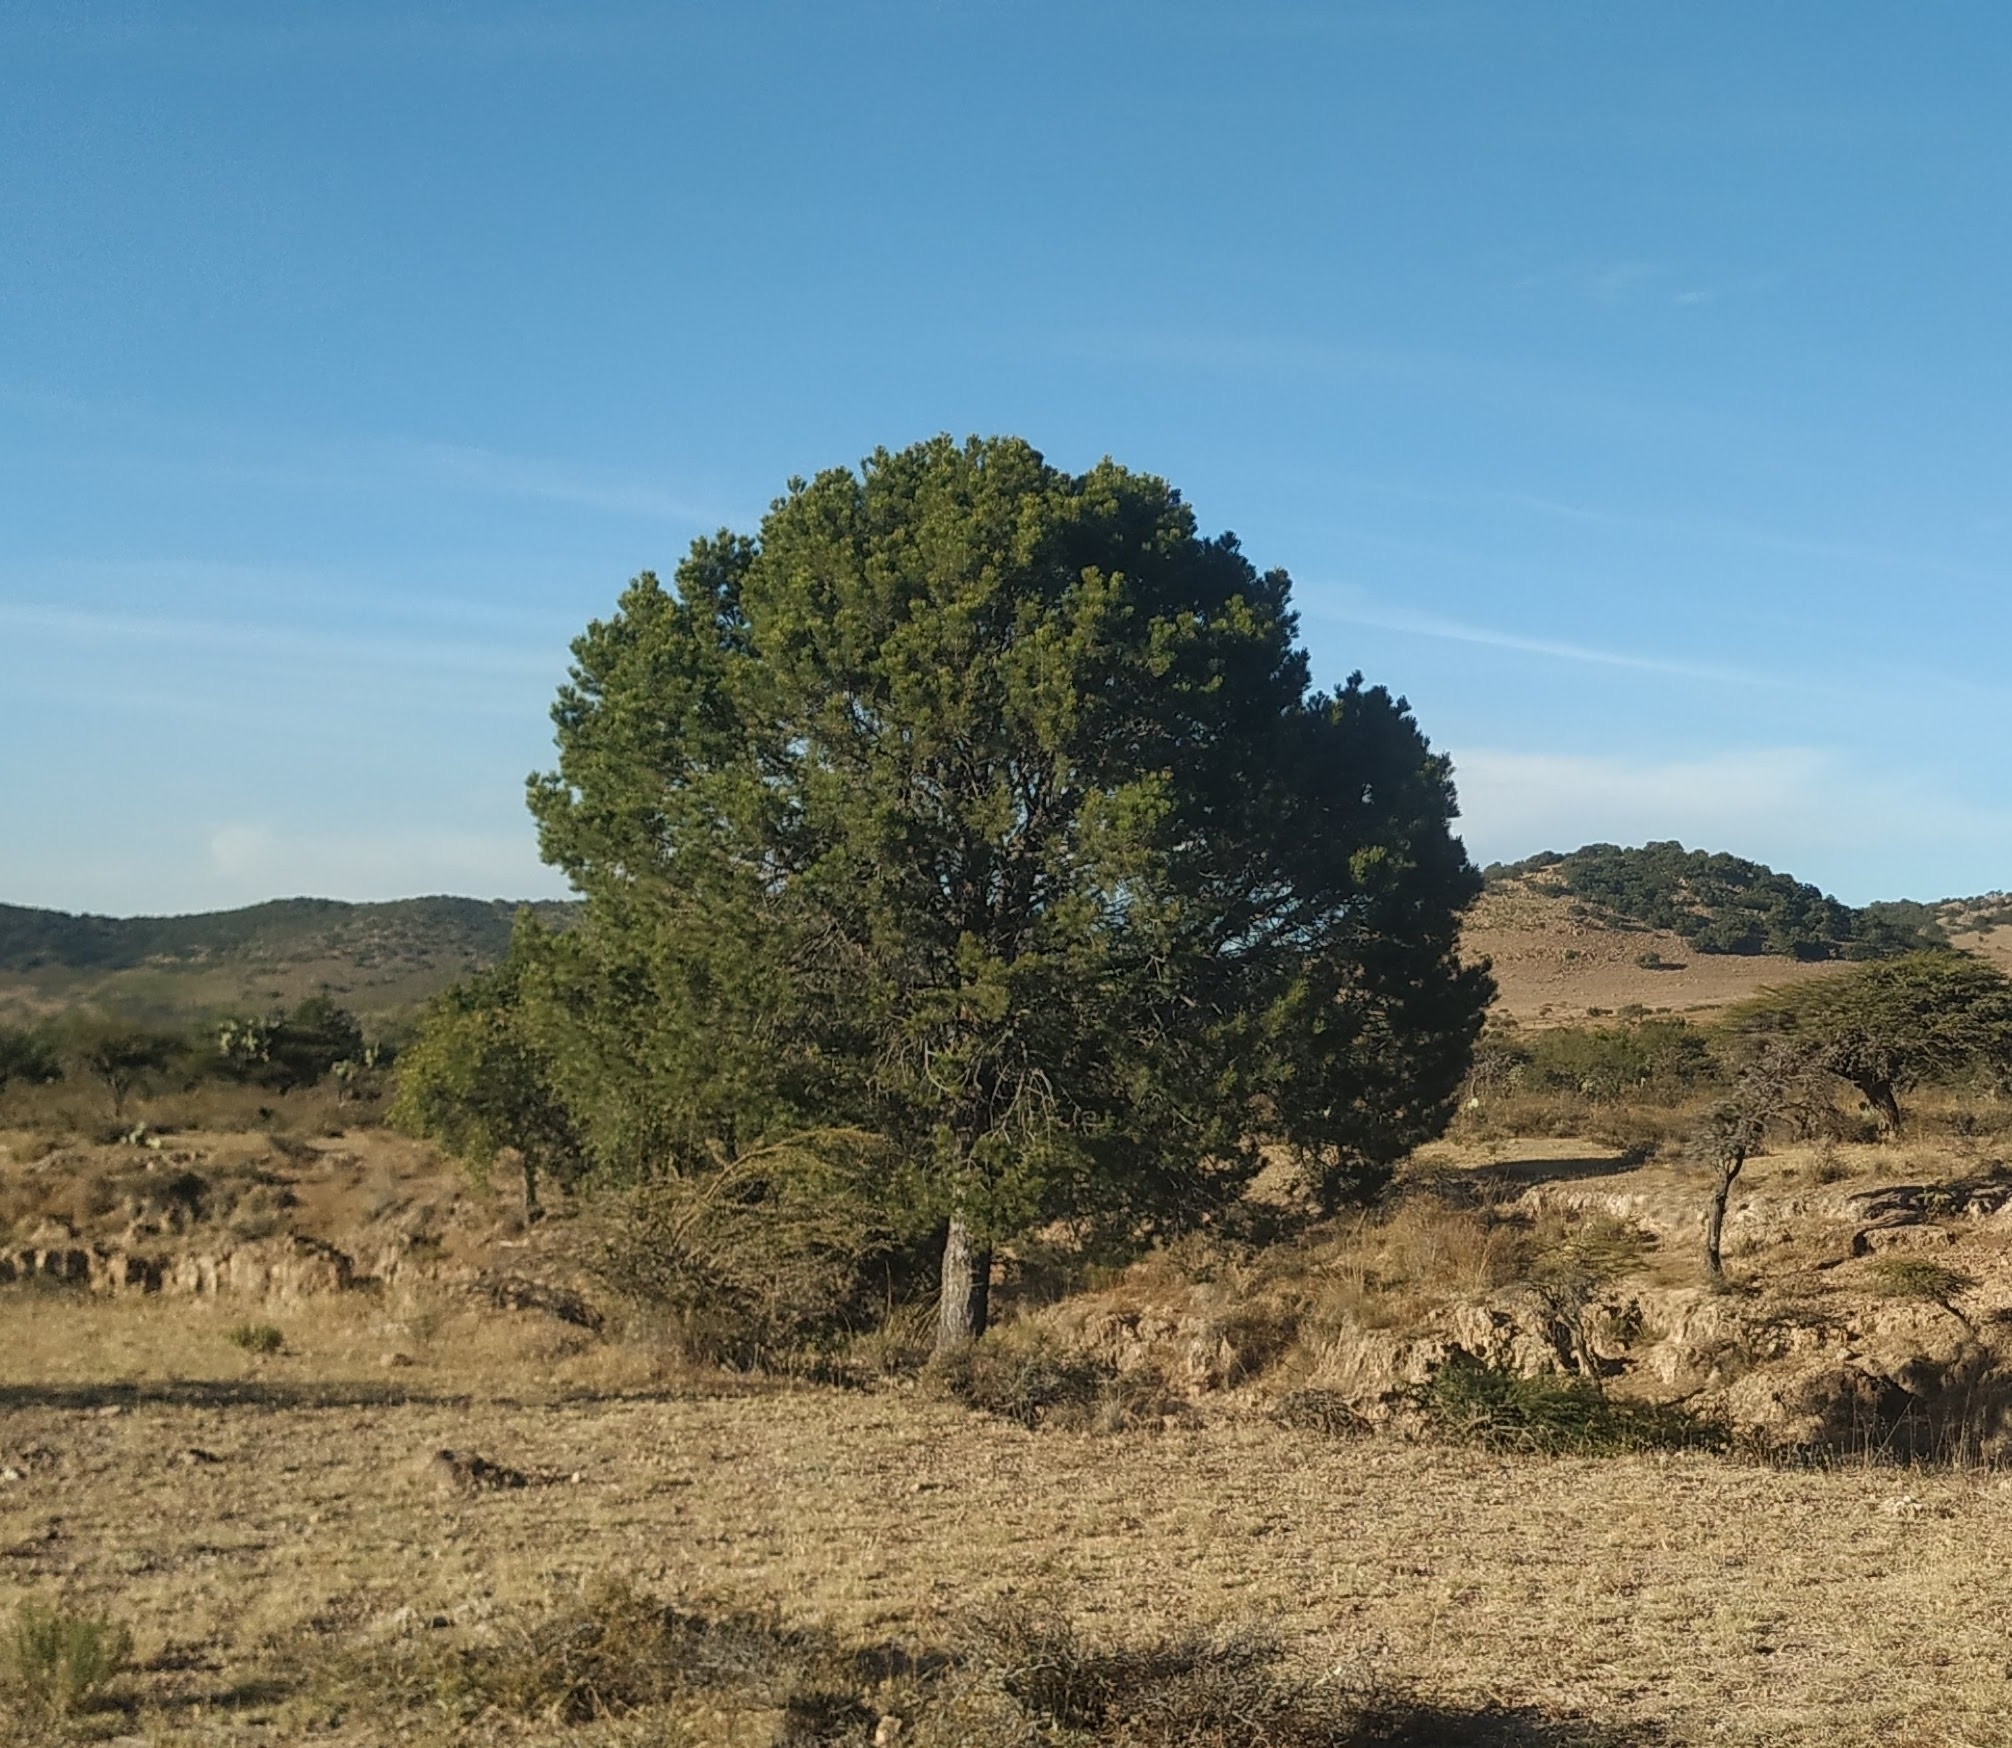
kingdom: Plantae
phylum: Tracheophyta
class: Pinopsida
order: Pinales
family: Pinaceae
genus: Pinus
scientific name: Pinus cembroides
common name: Mexican nut pine
